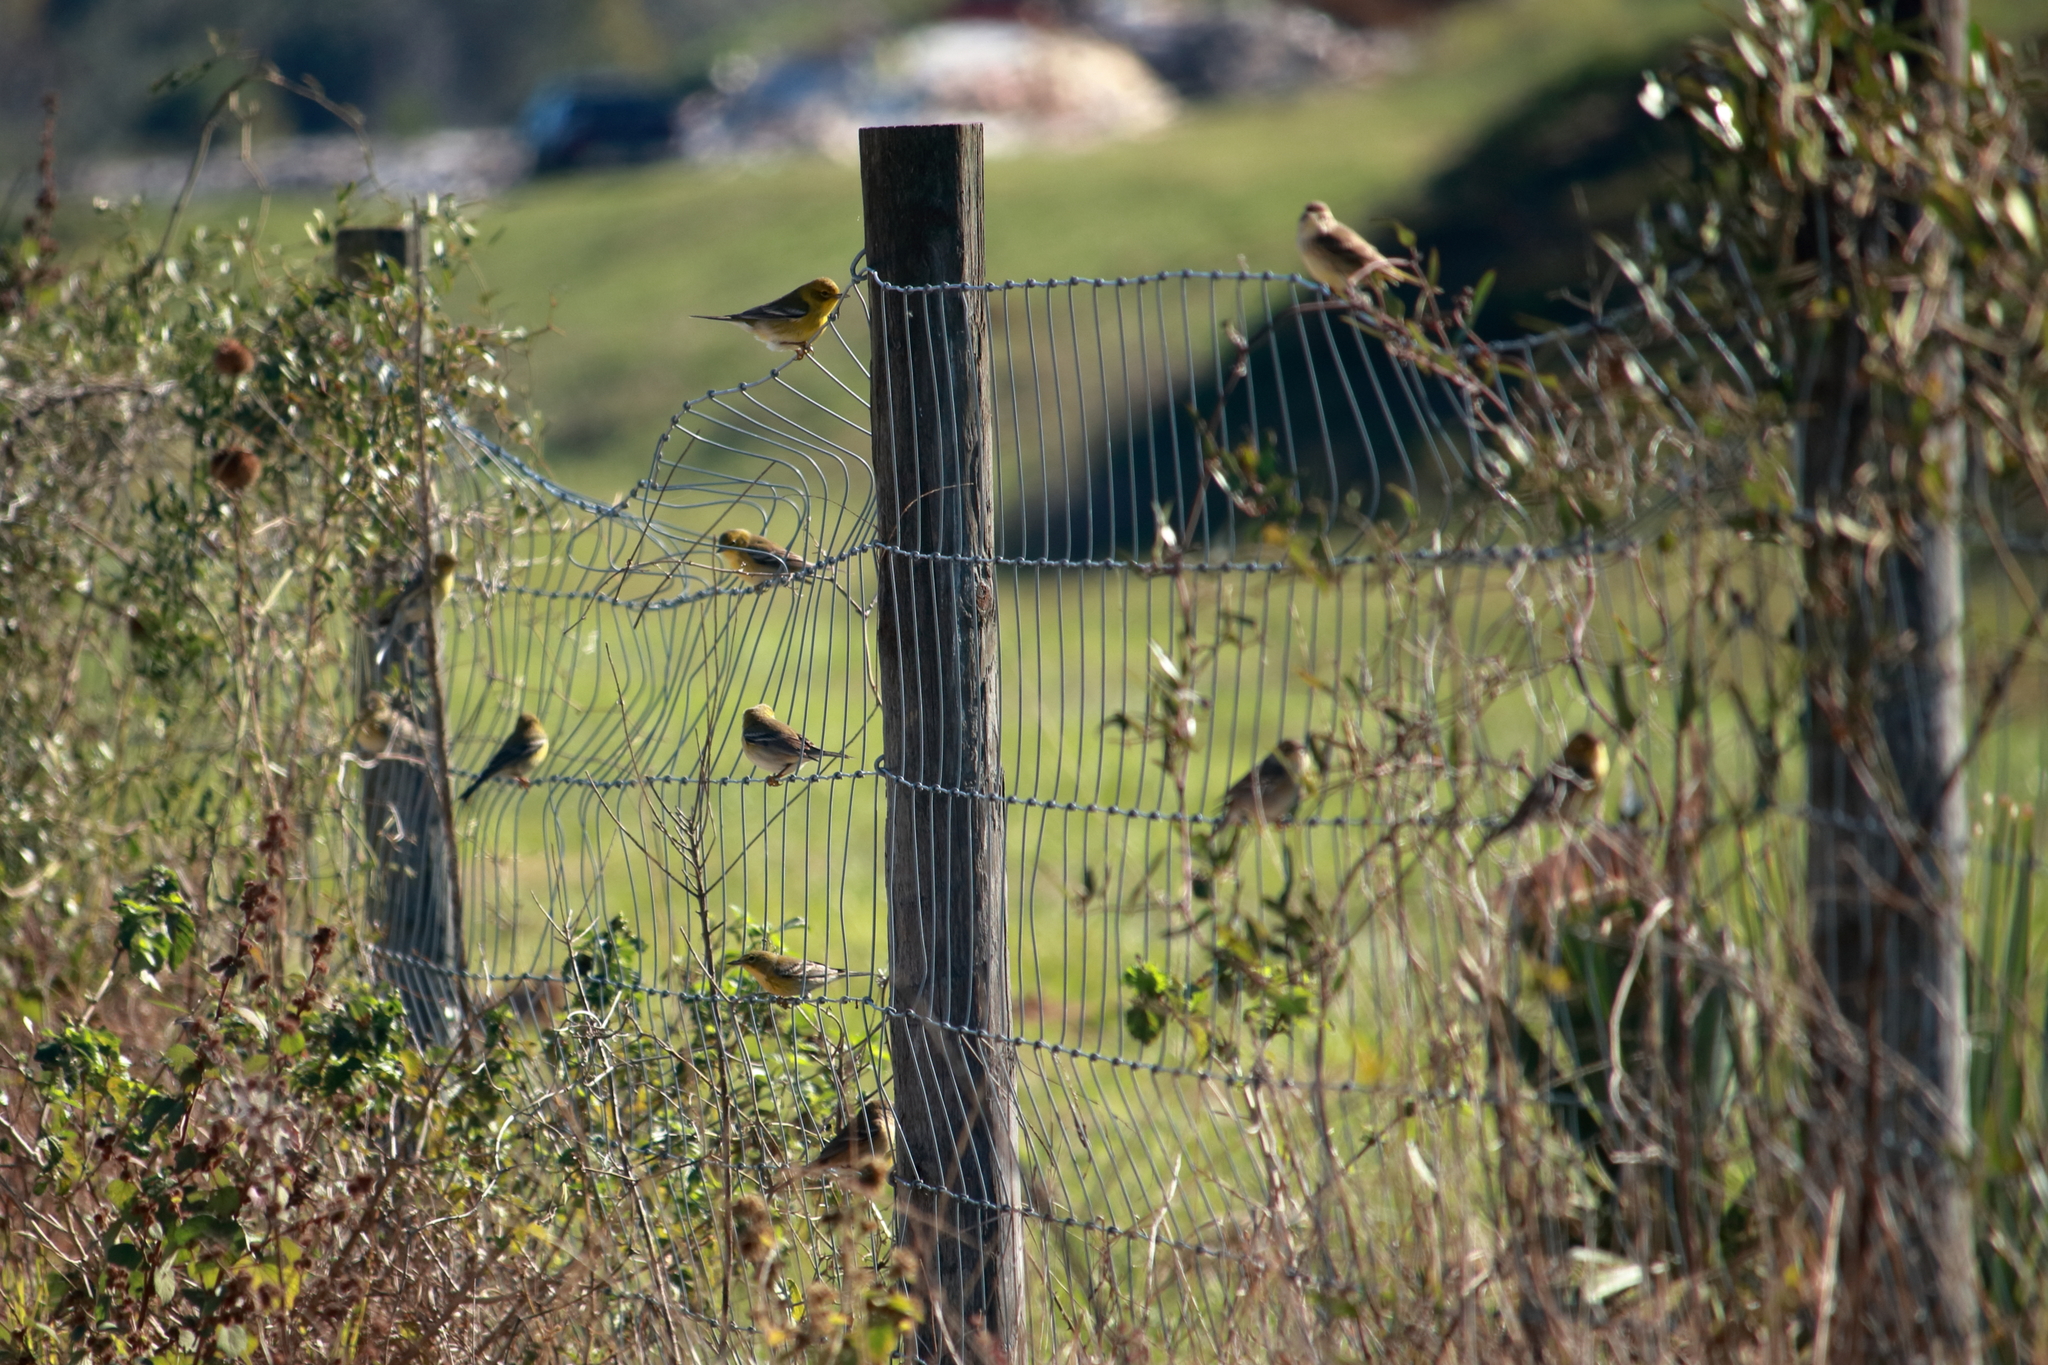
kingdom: Animalia
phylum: Chordata
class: Aves
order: Passeriformes
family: Parulidae
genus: Setophaga
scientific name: Setophaga pinus
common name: Pine warbler
